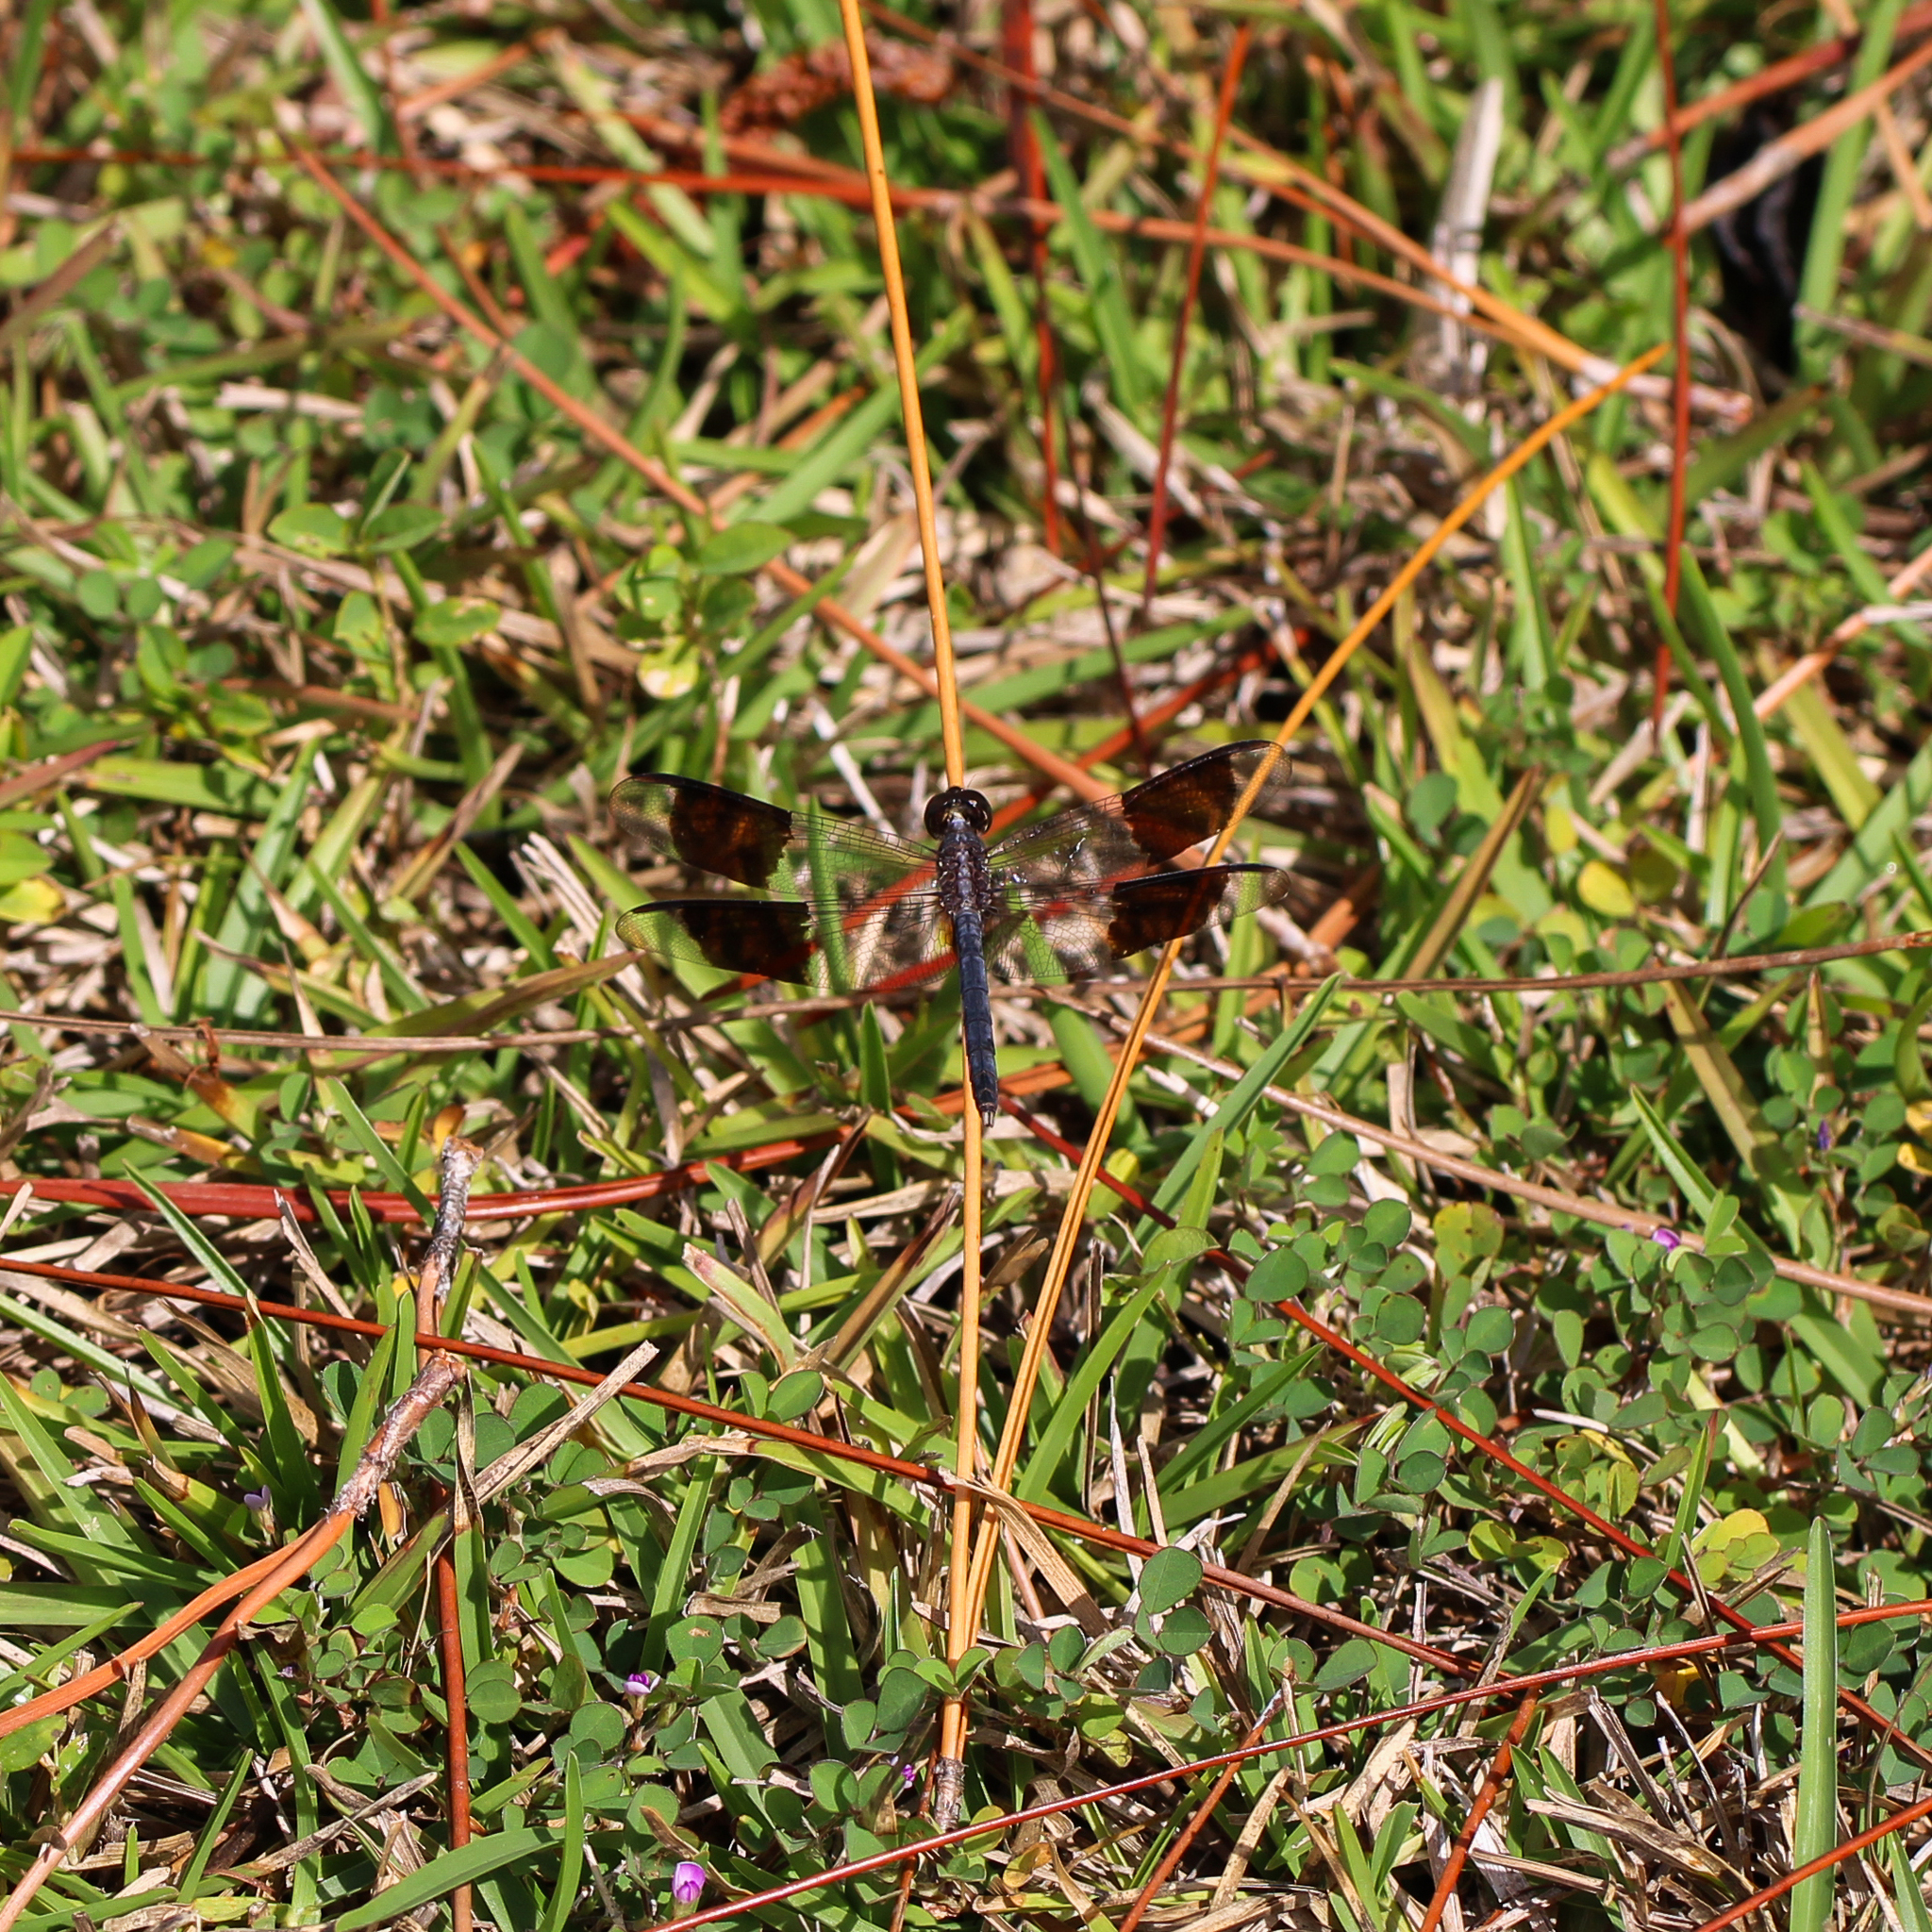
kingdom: Animalia
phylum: Arthropoda
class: Insecta
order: Odonata
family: Libellulidae
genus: Erythrodiplax
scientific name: Erythrodiplax umbrata
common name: Band-winged dragonlet
